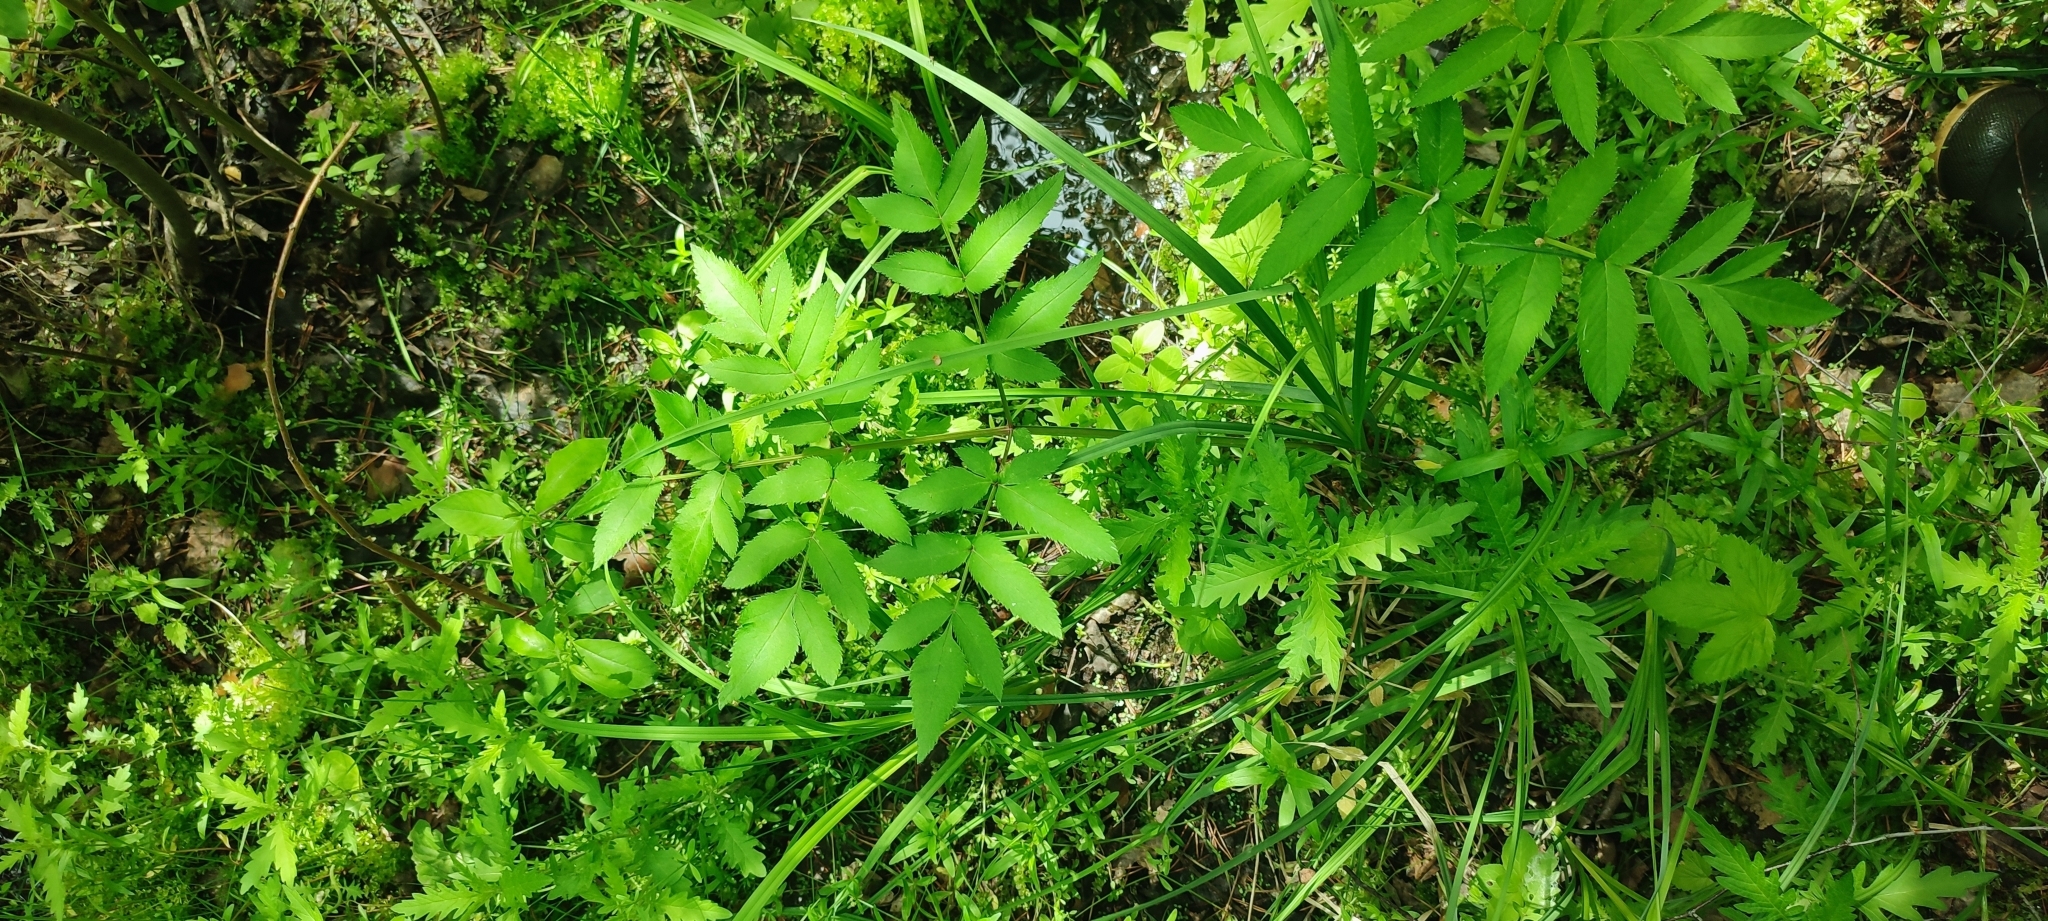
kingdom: Plantae
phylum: Tracheophyta
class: Magnoliopsida
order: Apiales
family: Apiaceae
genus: Angelica
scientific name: Angelica sylvestris
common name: Wild angelica
